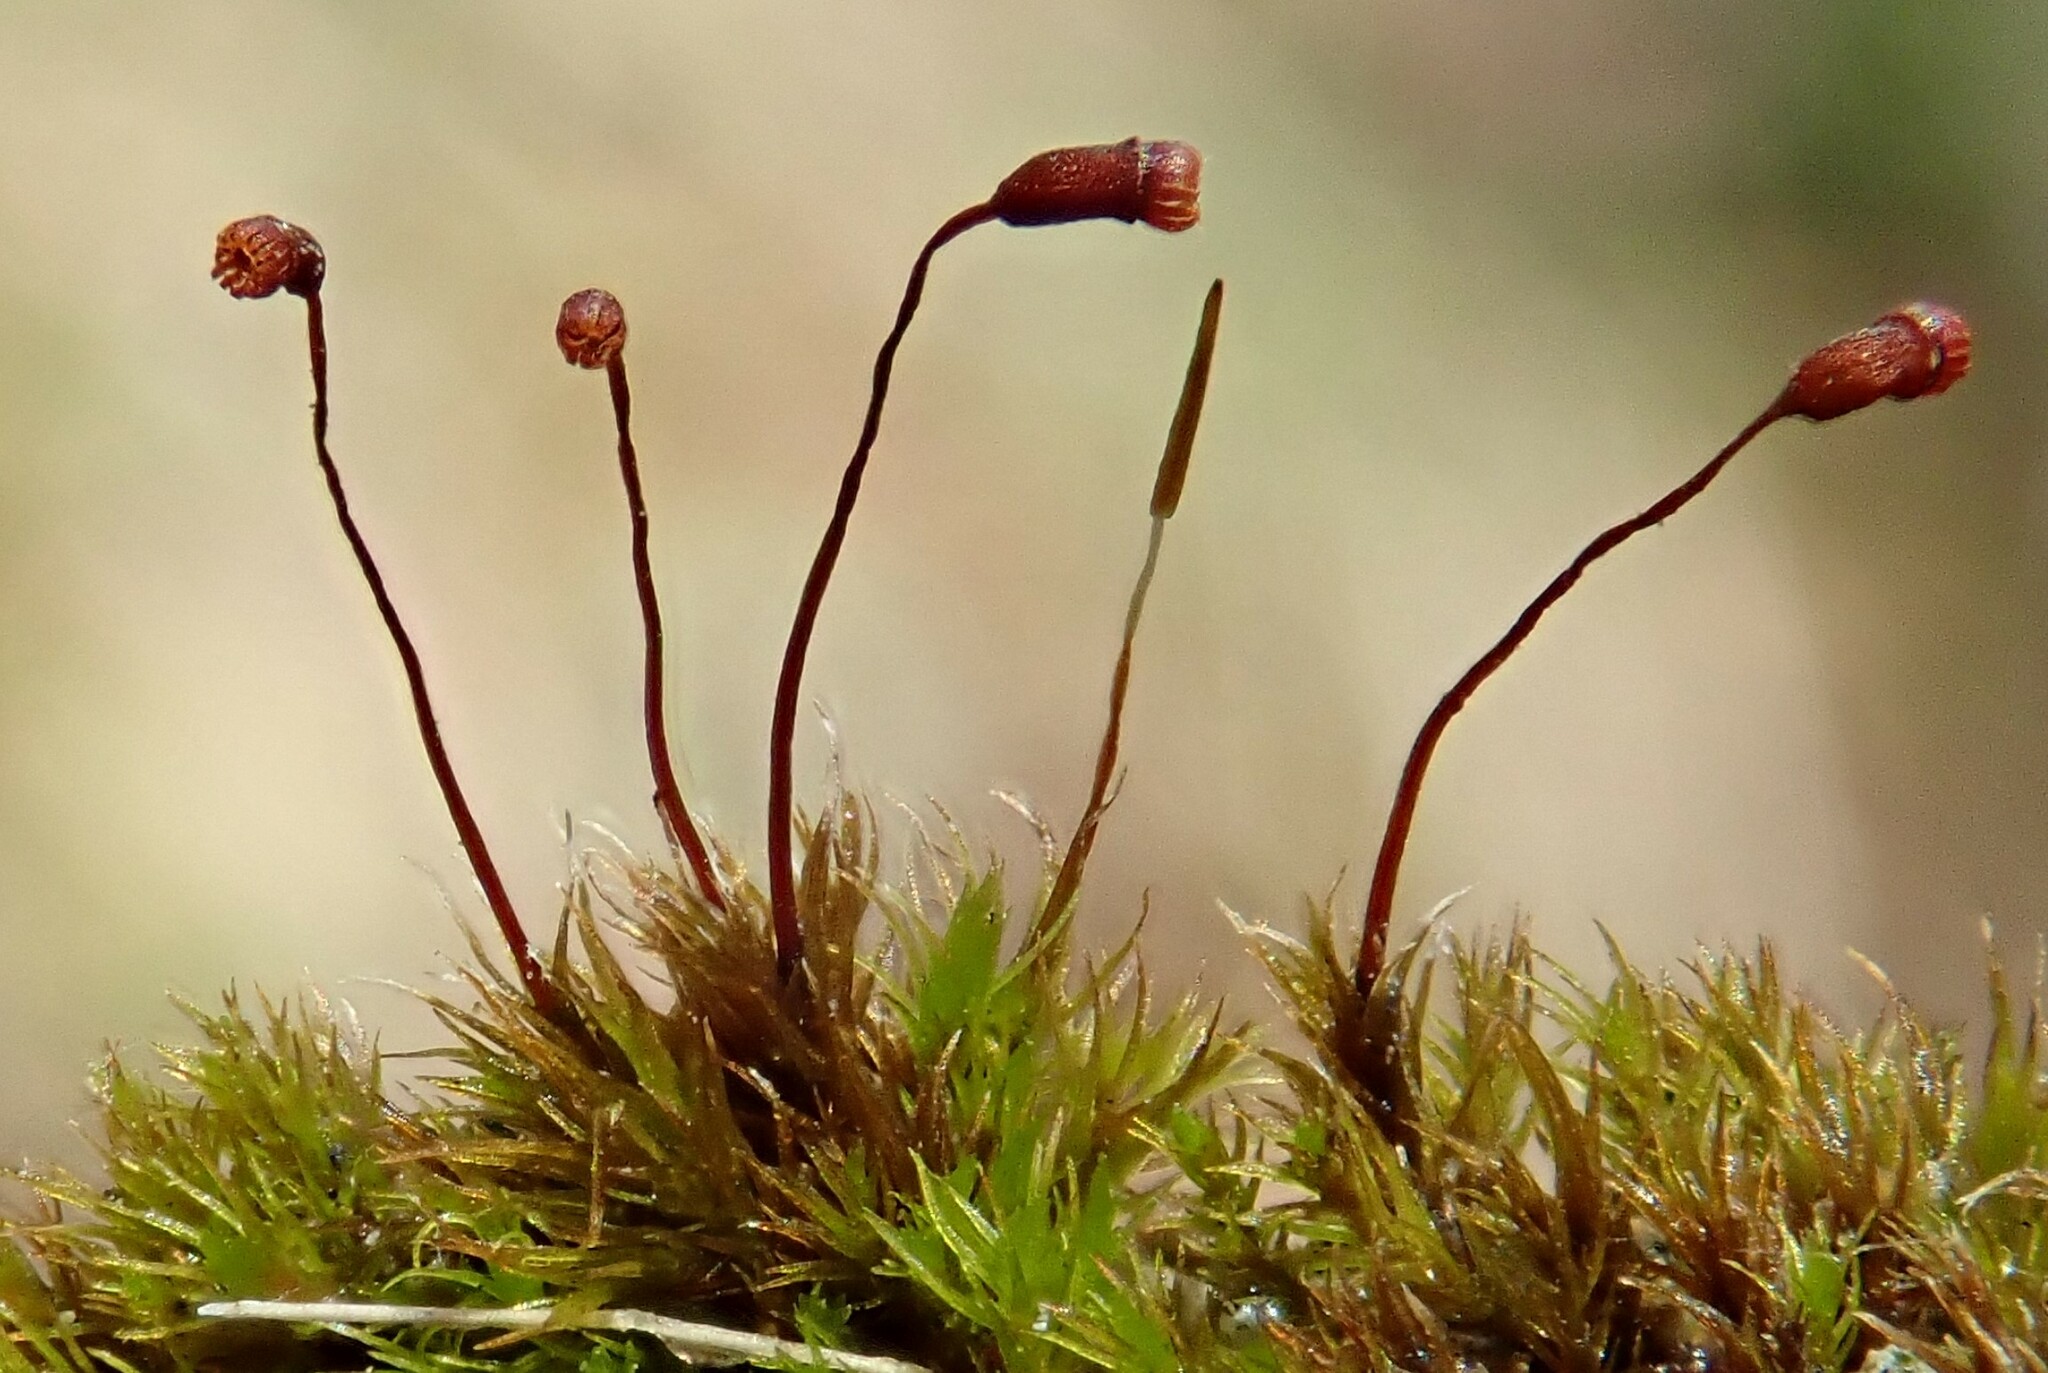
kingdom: Plantae
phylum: Bryophyta
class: Bryopsida
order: Dicranales
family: Dicranellaceae
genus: Dicranella
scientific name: Dicranella varia
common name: Variable forklet moss
